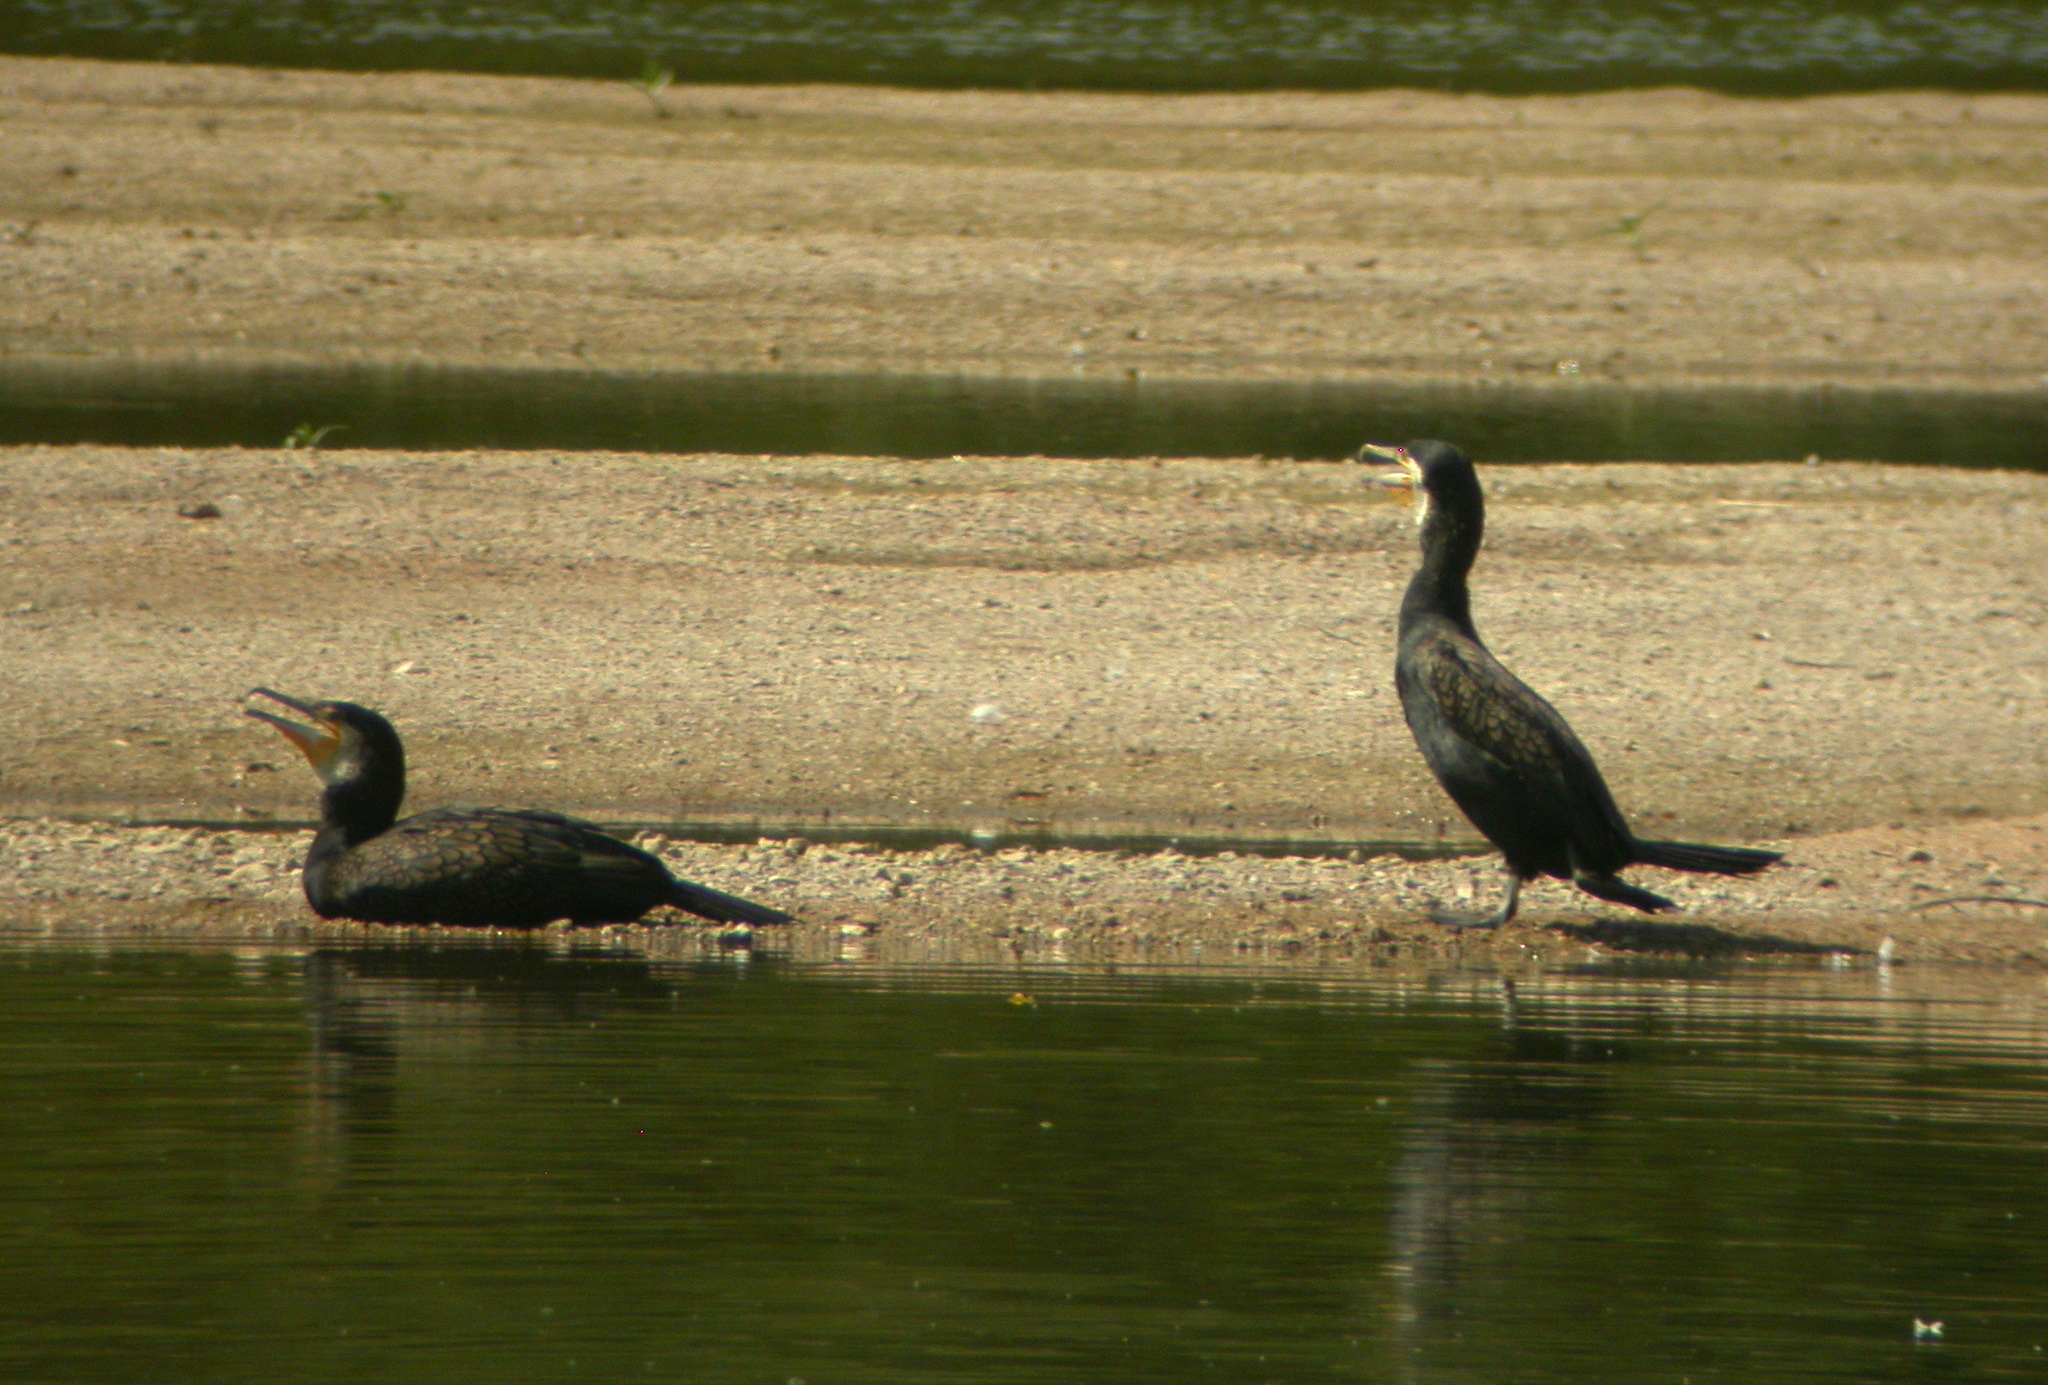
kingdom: Animalia
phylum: Chordata
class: Aves
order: Suliformes
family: Phalacrocoracidae
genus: Phalacrocorax
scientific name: Phalacrocorax carbo
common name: Great cormorant
